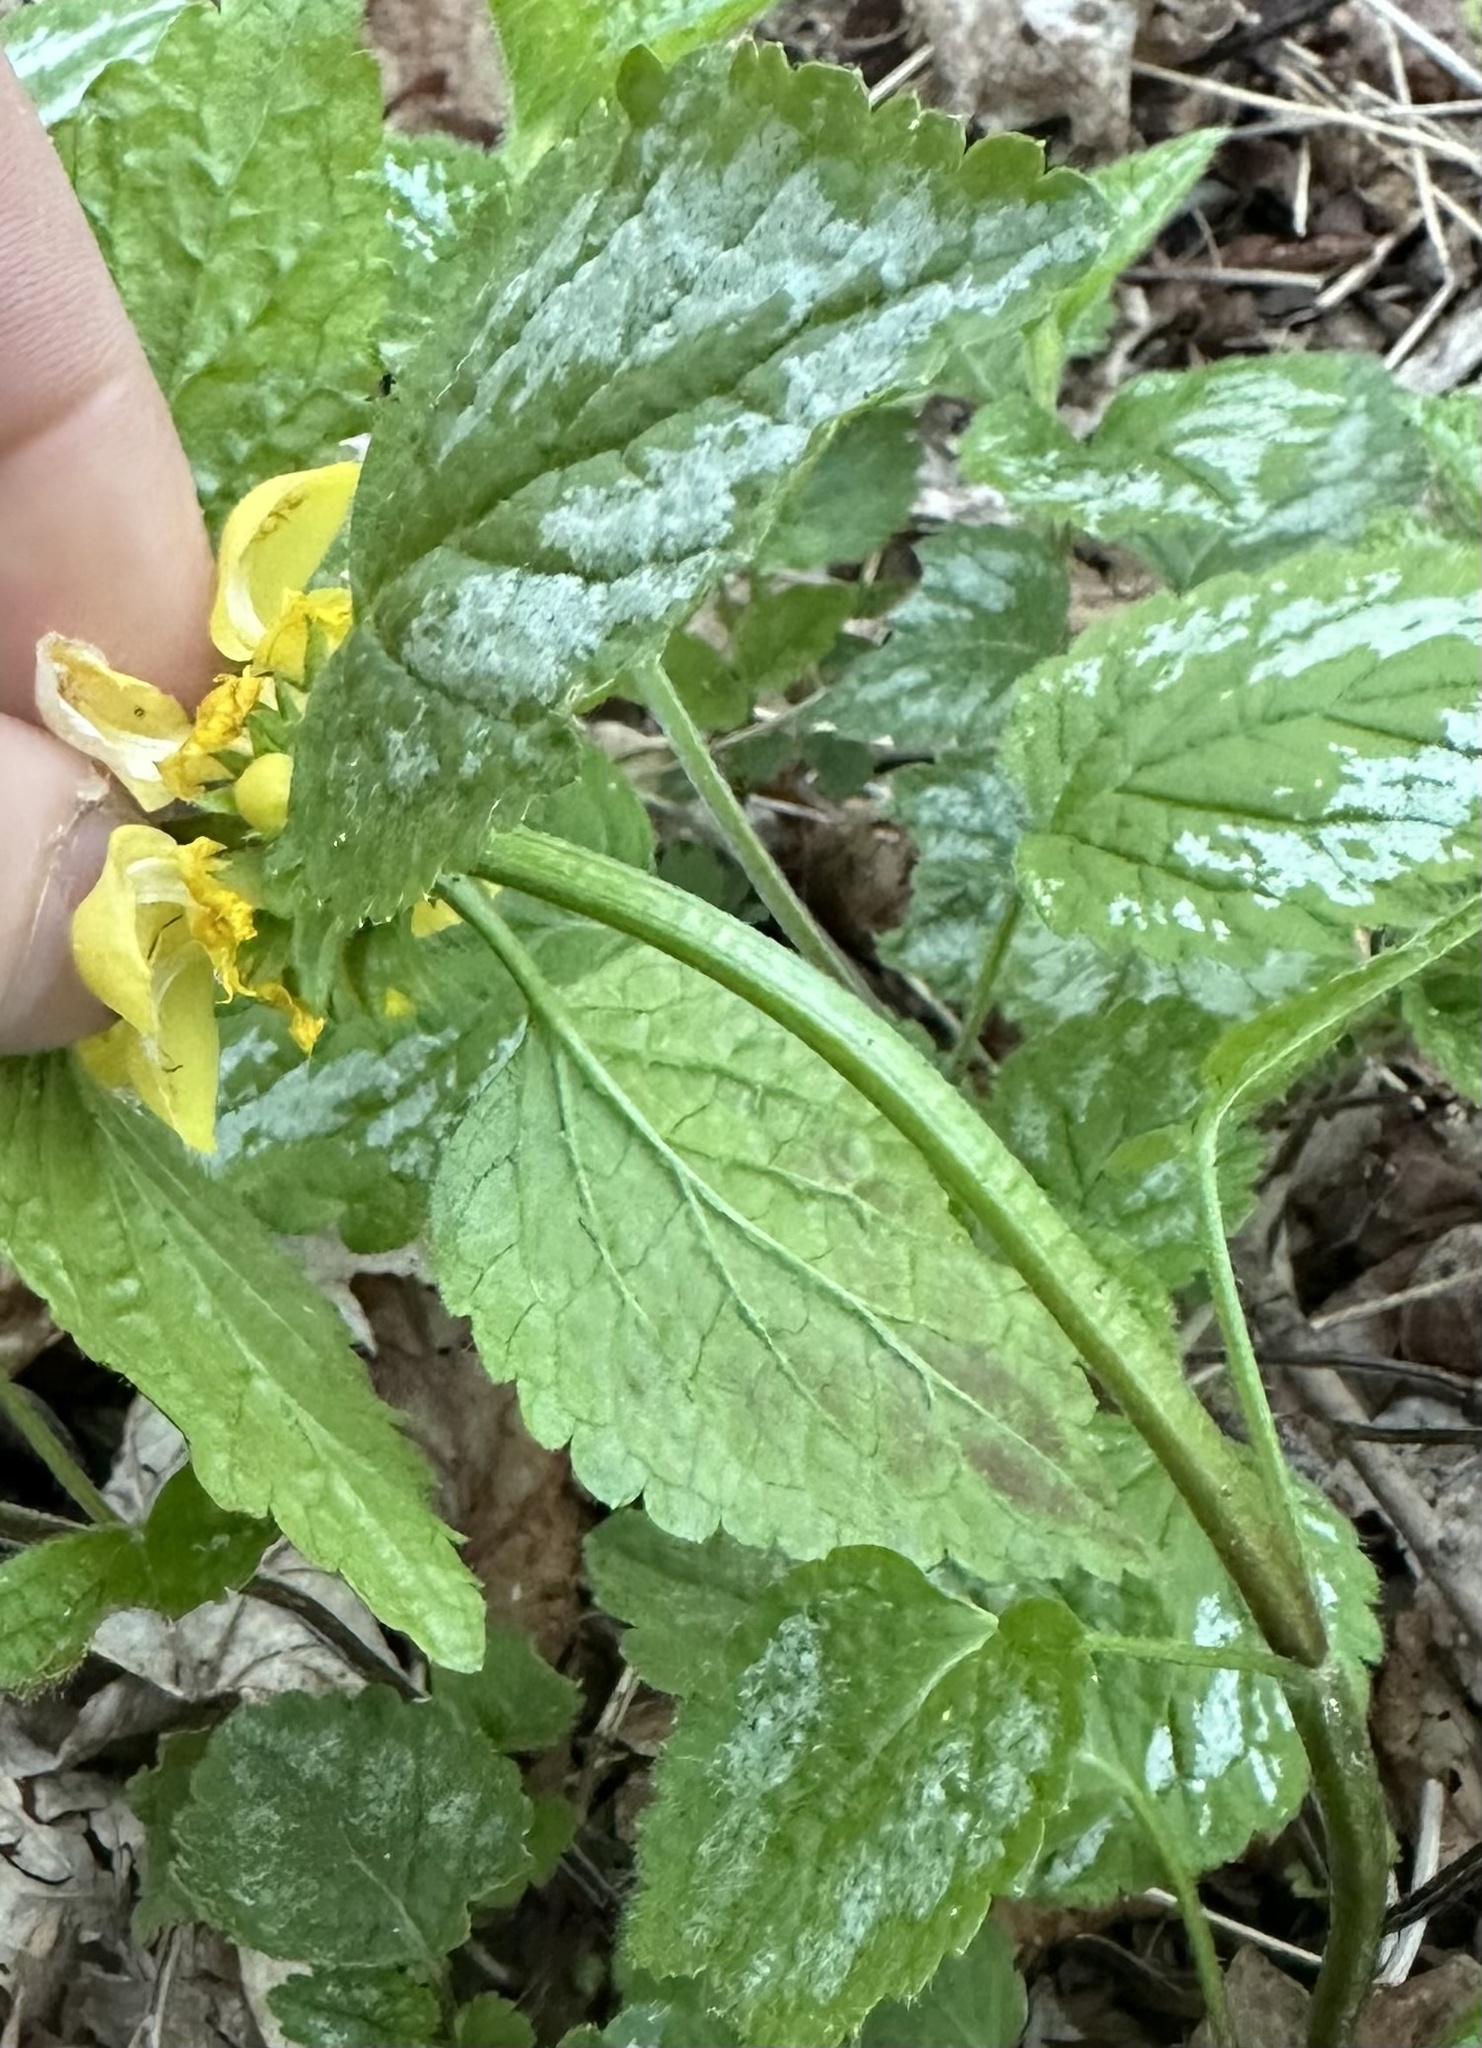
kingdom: Plantae
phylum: Tracheophyta
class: Magnoliopsida
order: Lamiales
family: Lamiaceae
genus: Lamium
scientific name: Lamium galeobdolon
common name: Yellow archangel
